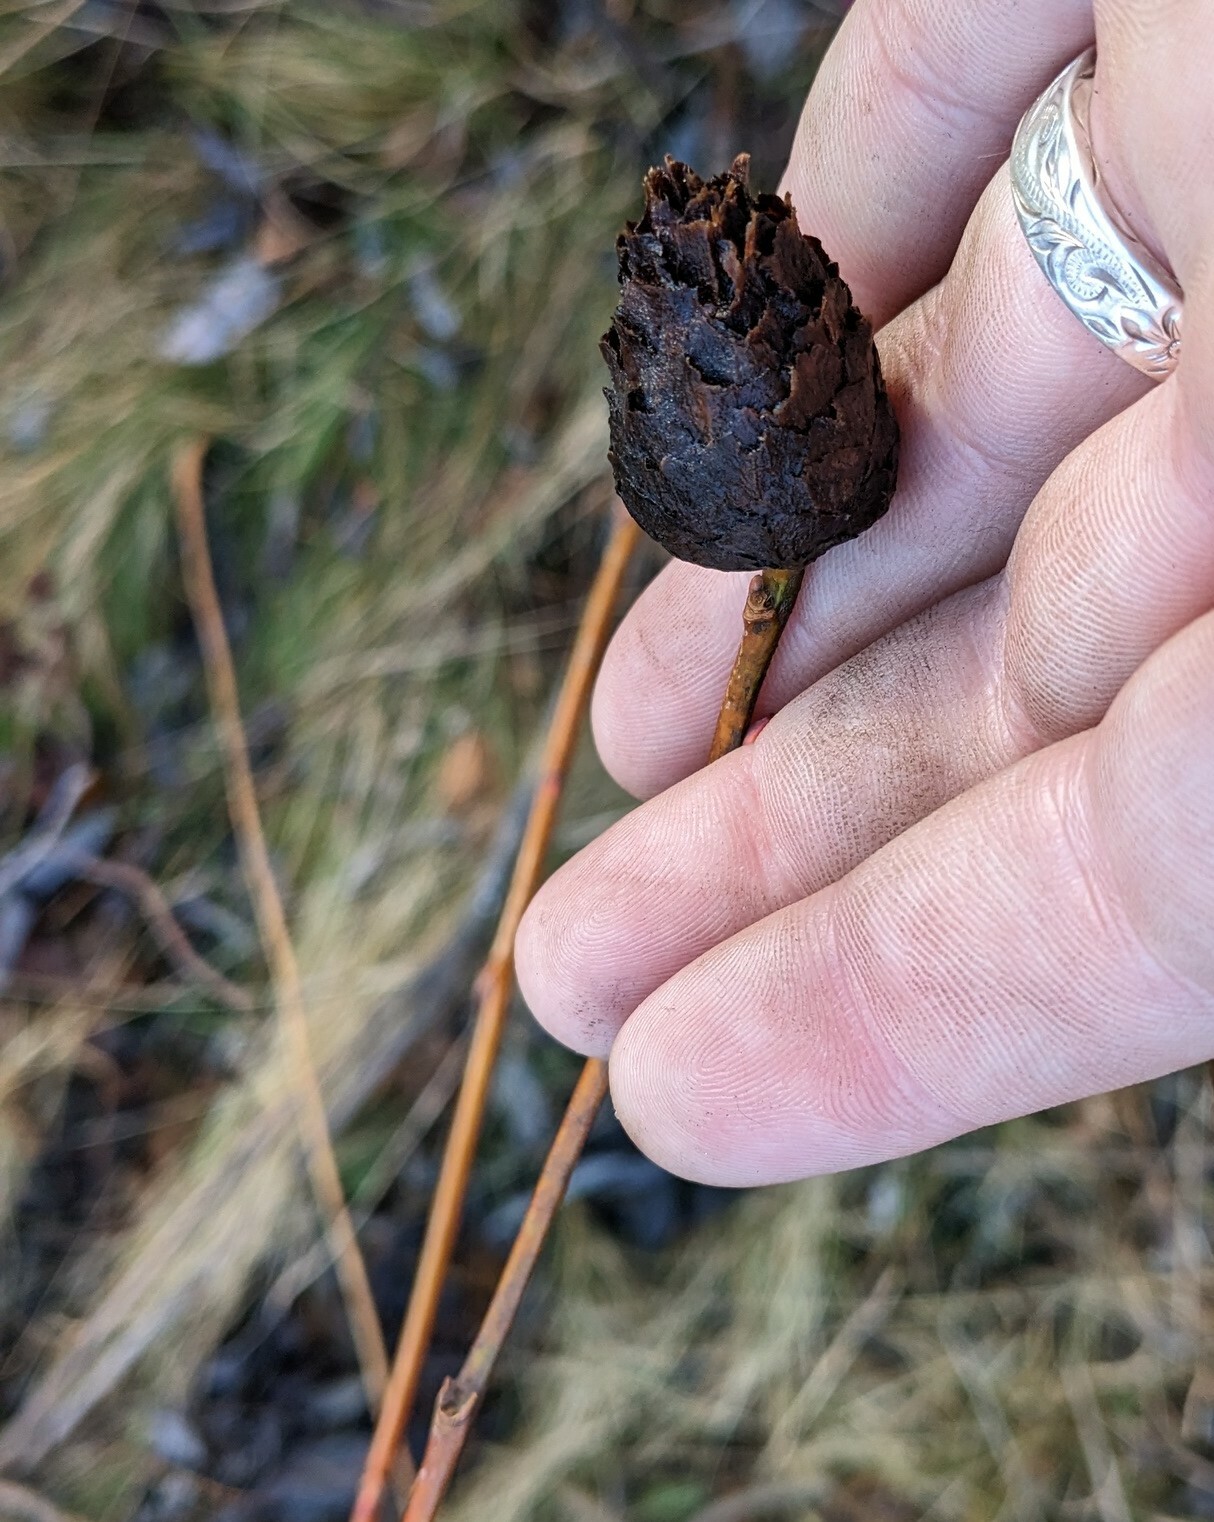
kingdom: Animalia
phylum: Arthropoda
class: Insecta
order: Diptera
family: Cecidomyiidae
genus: Rabdophaga
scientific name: Rabdophaga strobiloides
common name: Willow pinecone gall midge
